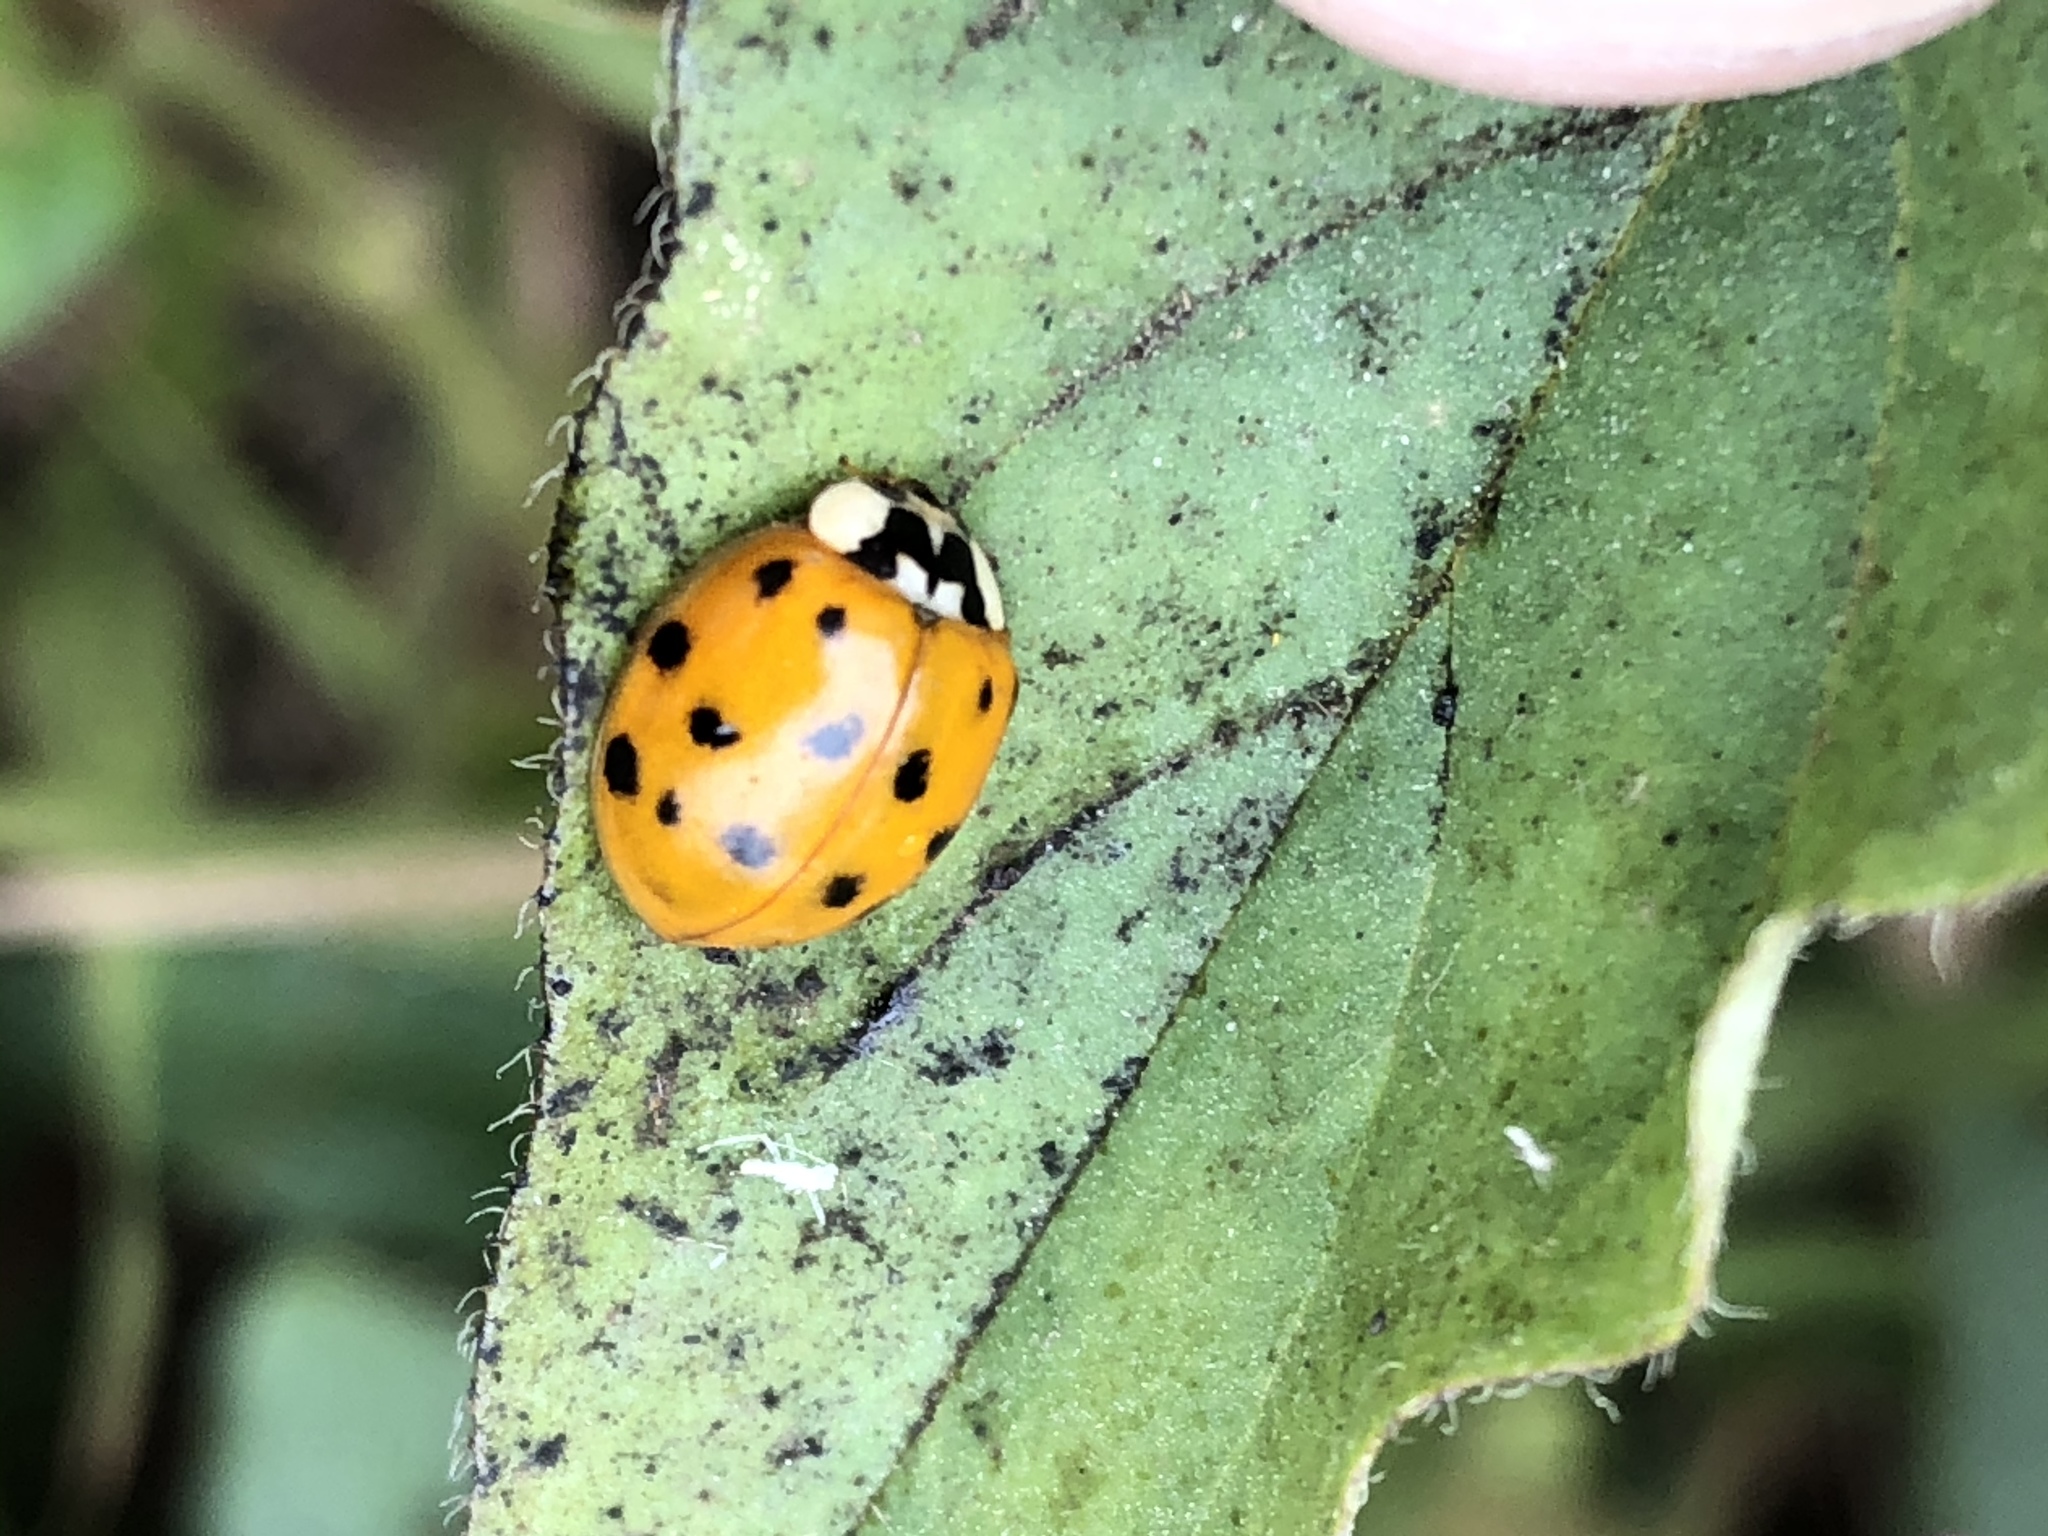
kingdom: Animalia
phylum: Arthropoda
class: Insecta
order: Coleoptera
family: Coccinellidae
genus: Harmonia
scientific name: Harmonia axyridis
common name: Harlequin ladybird
